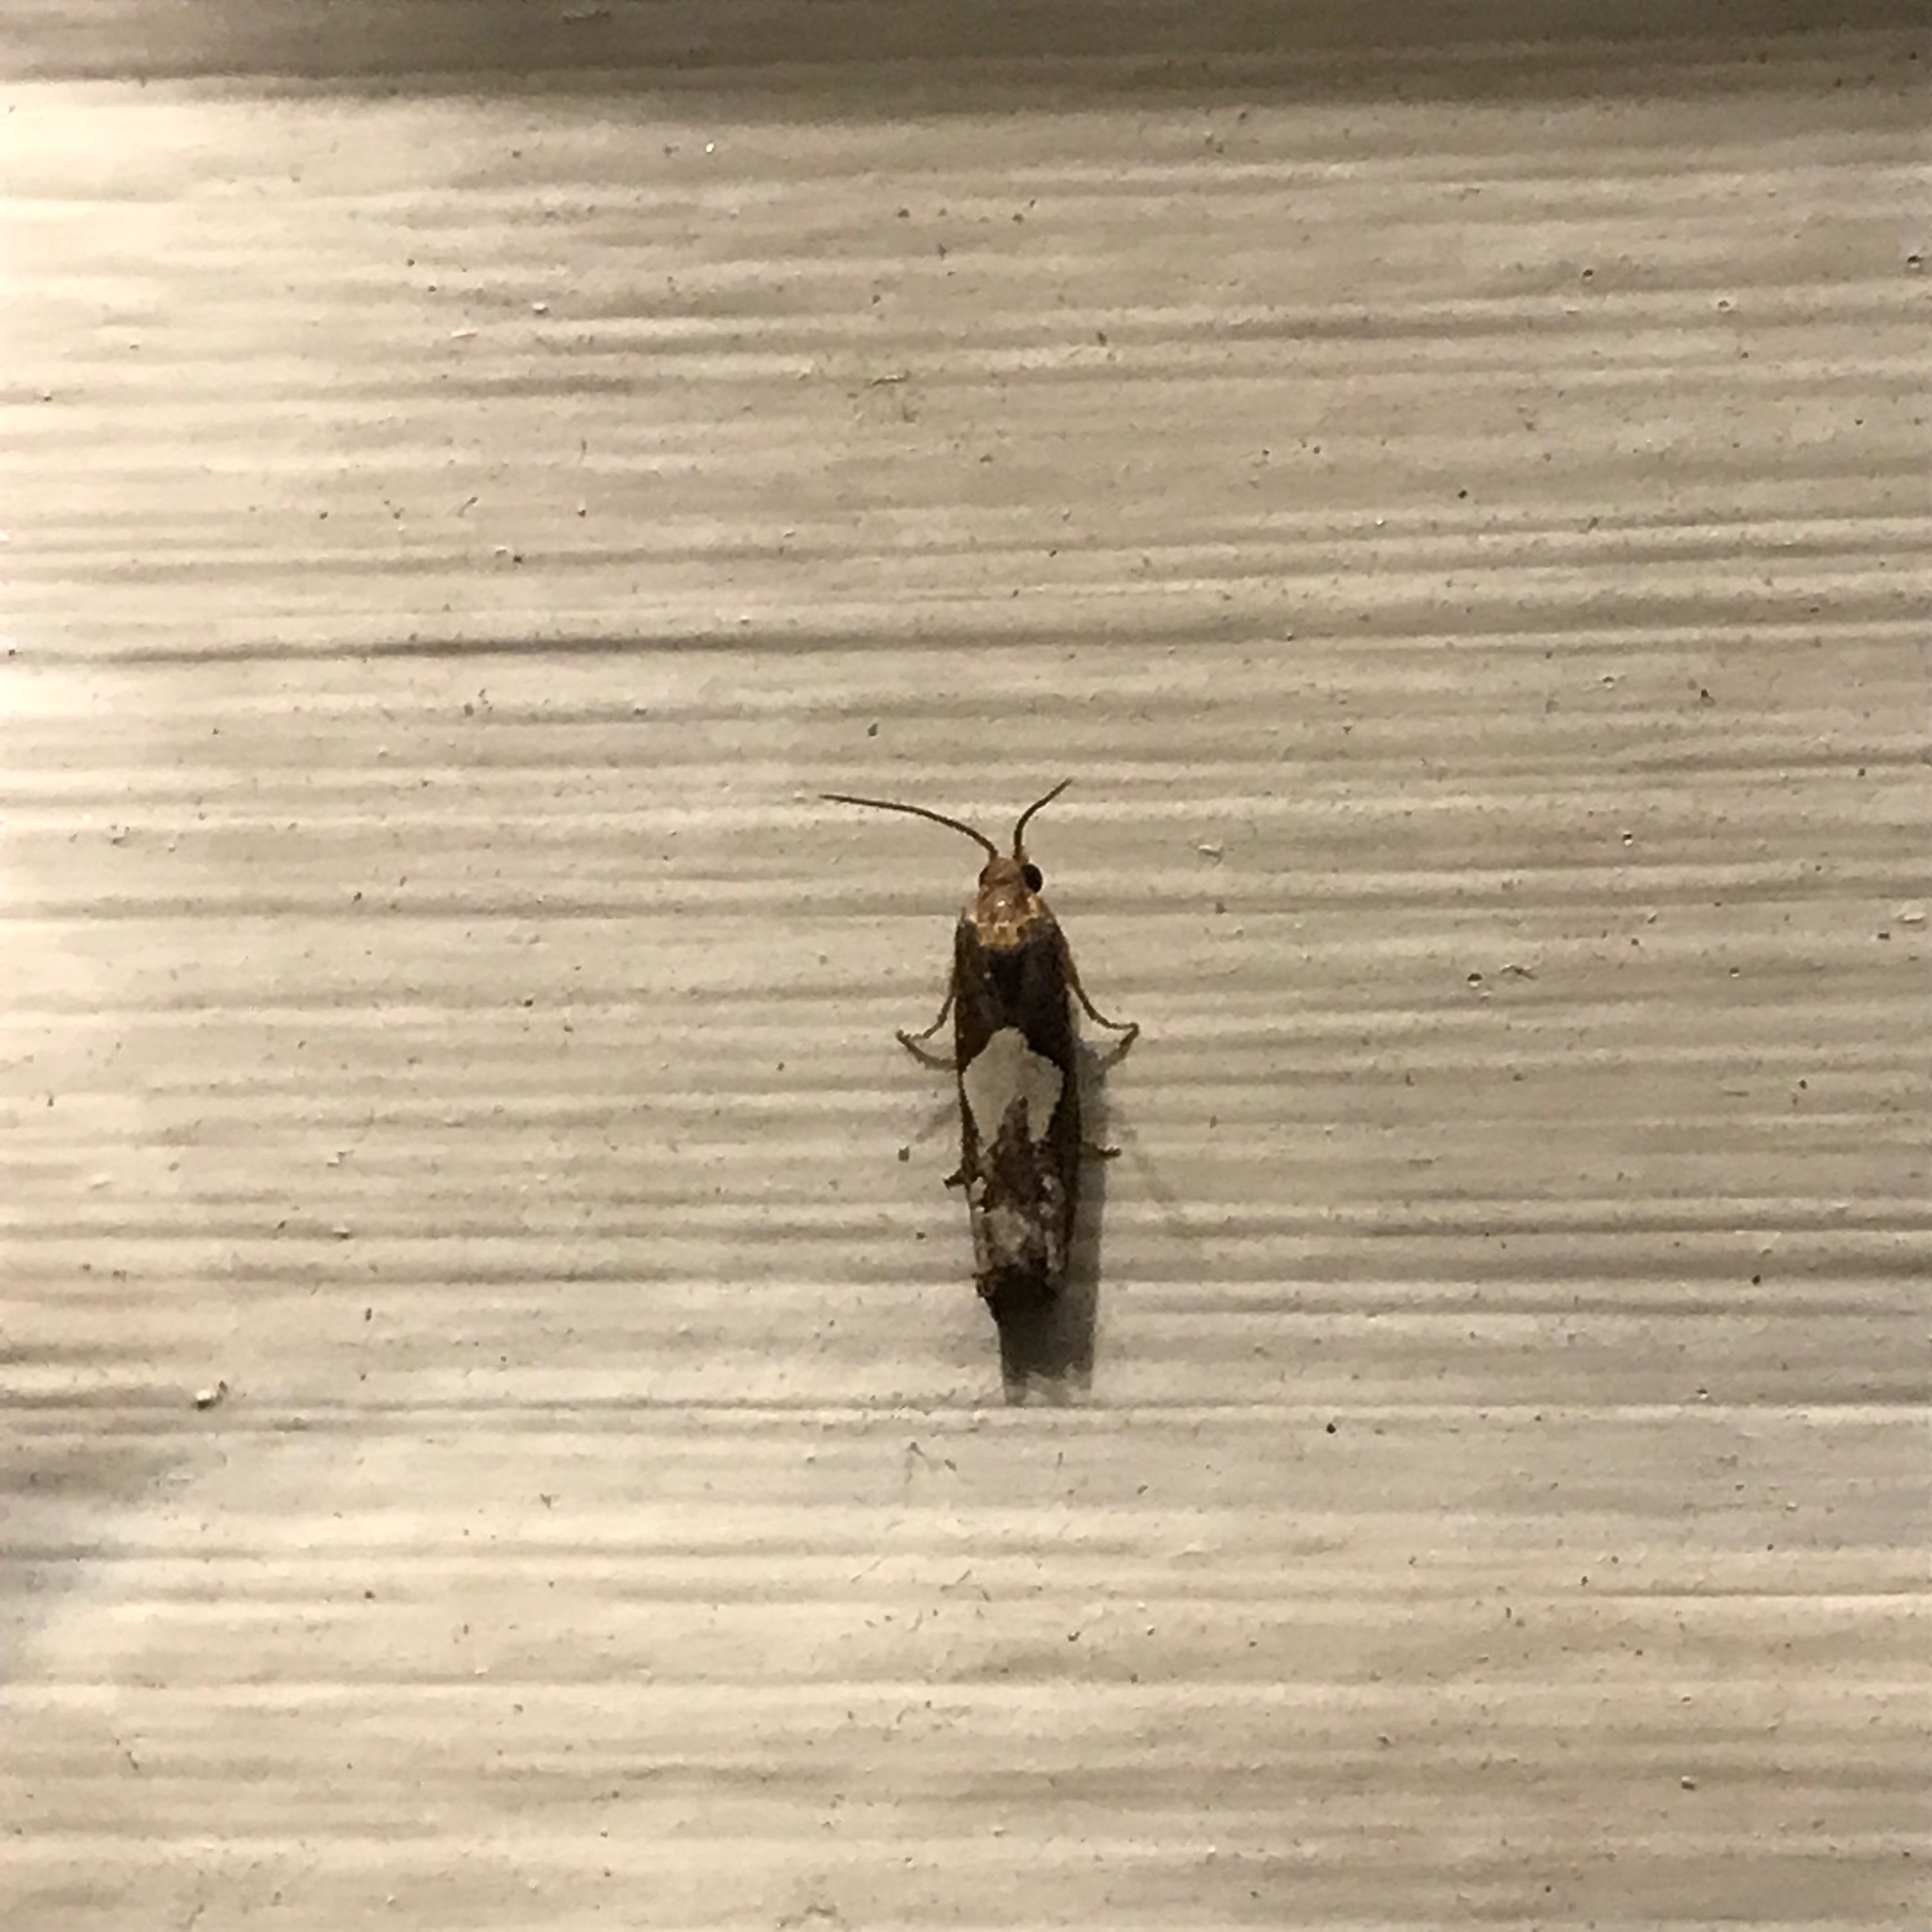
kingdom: Animalia
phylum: Arthropoda
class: Insecta
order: Lepidoptera
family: Tortricidae
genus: Epiblema
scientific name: Epiblema otiosana
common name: Bidens borer moth
